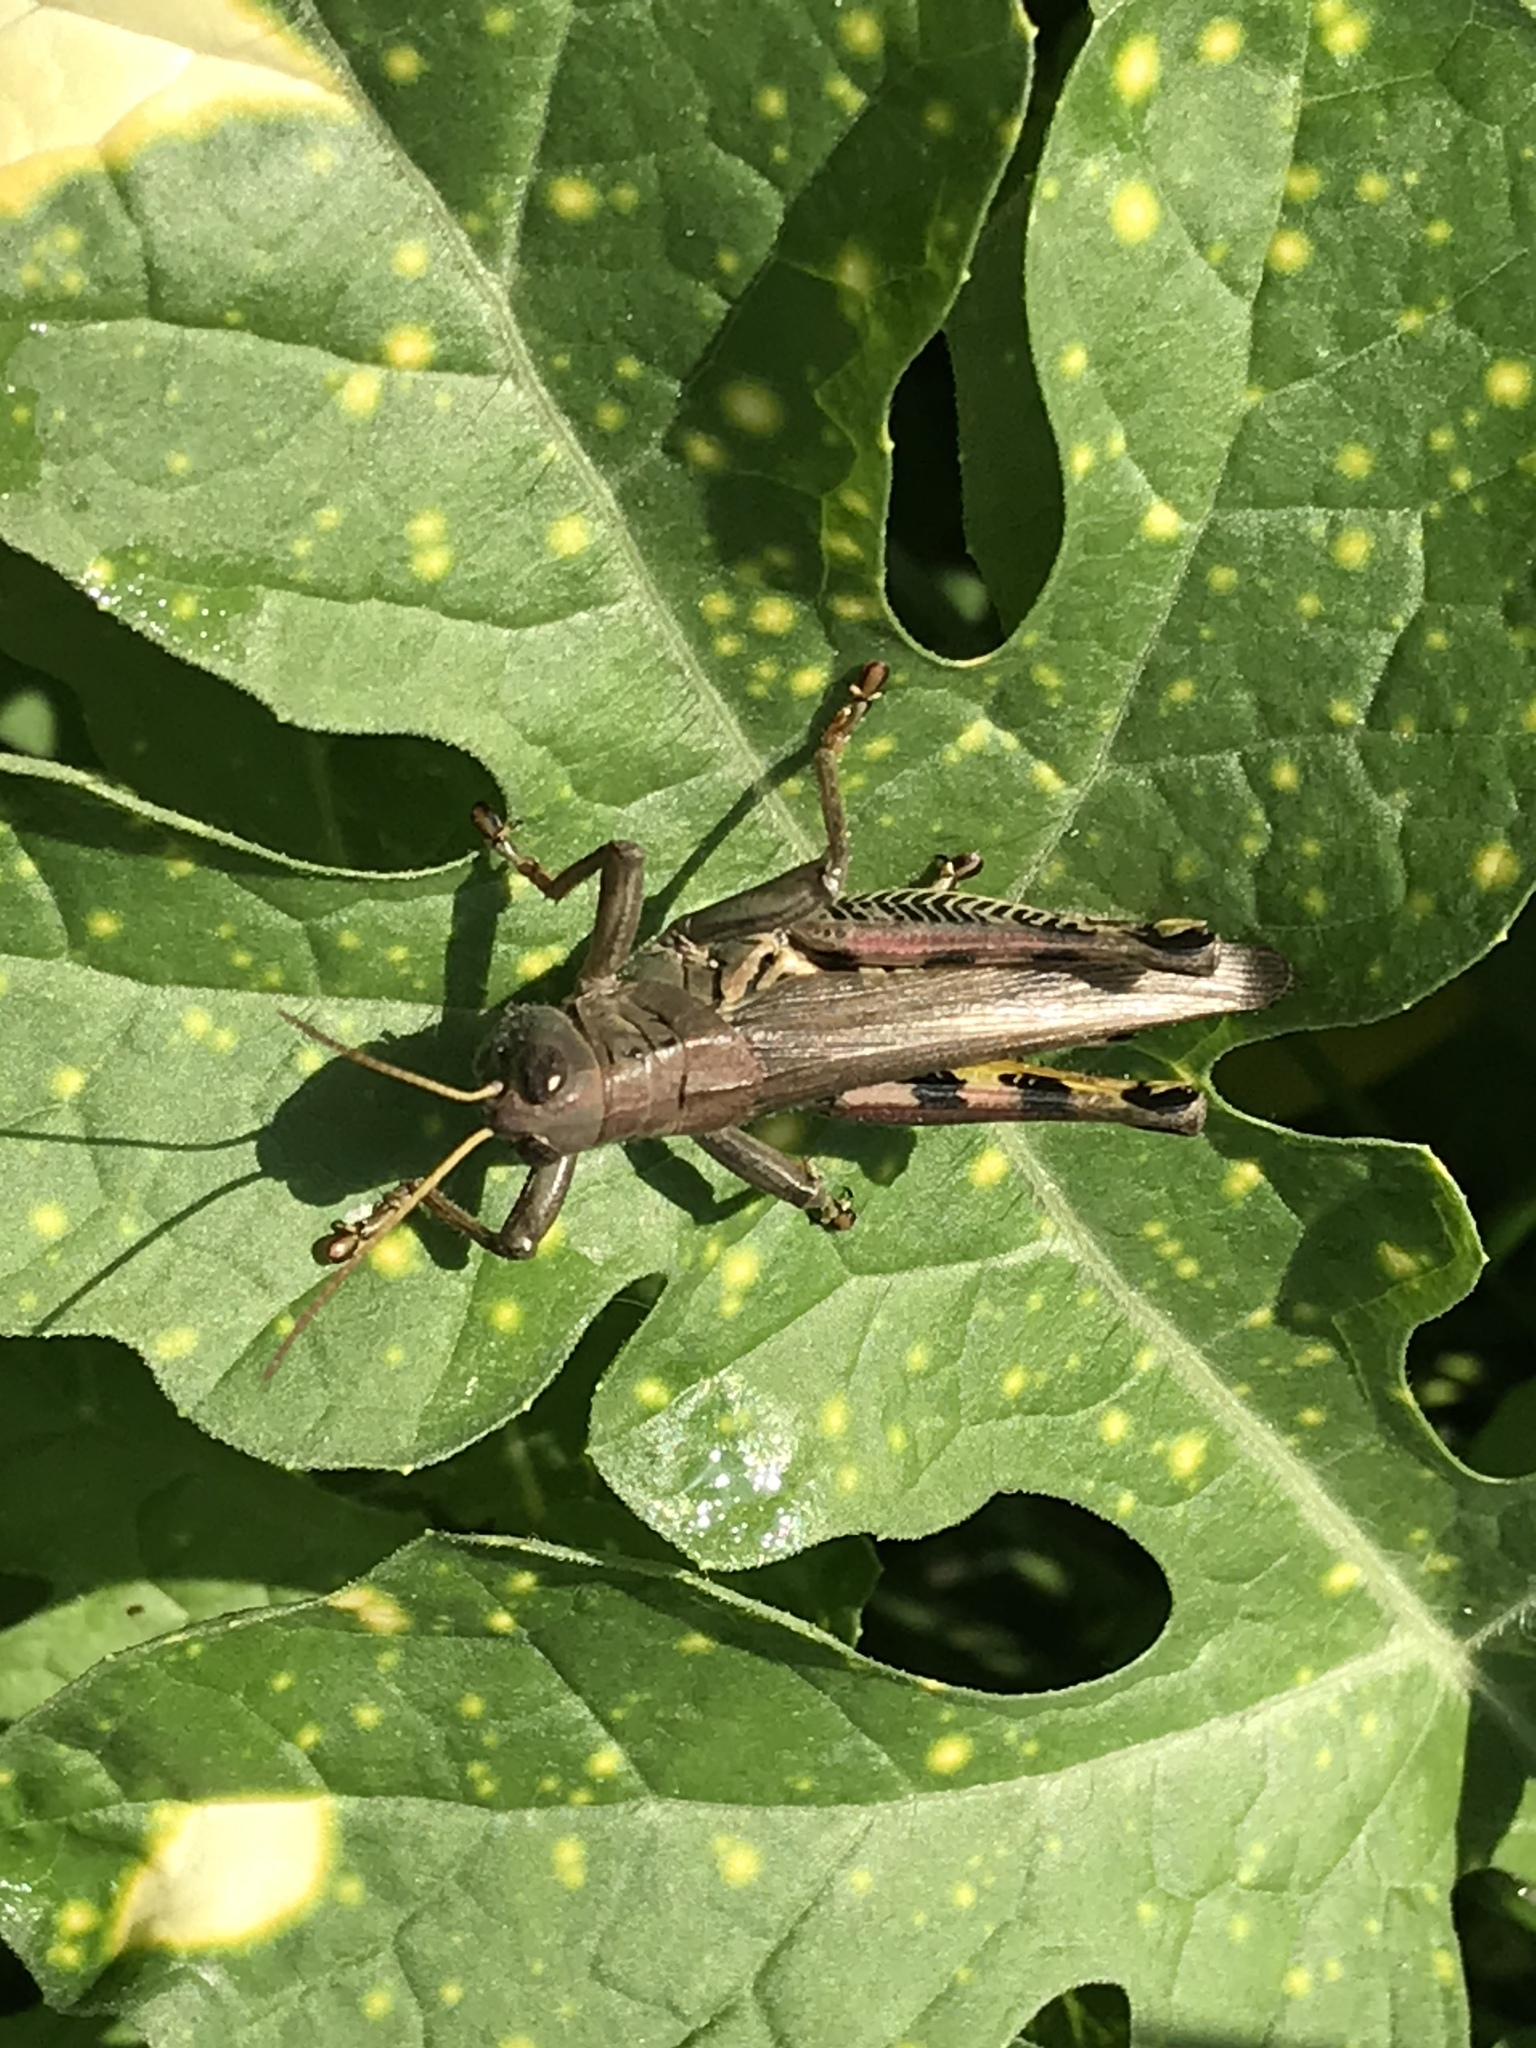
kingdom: Animalia
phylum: Arthropoda
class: Insecta
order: Orthoptera
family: Acrididae
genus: Melanoplus
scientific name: Melanoplus differentialis
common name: Differential grasshopper
